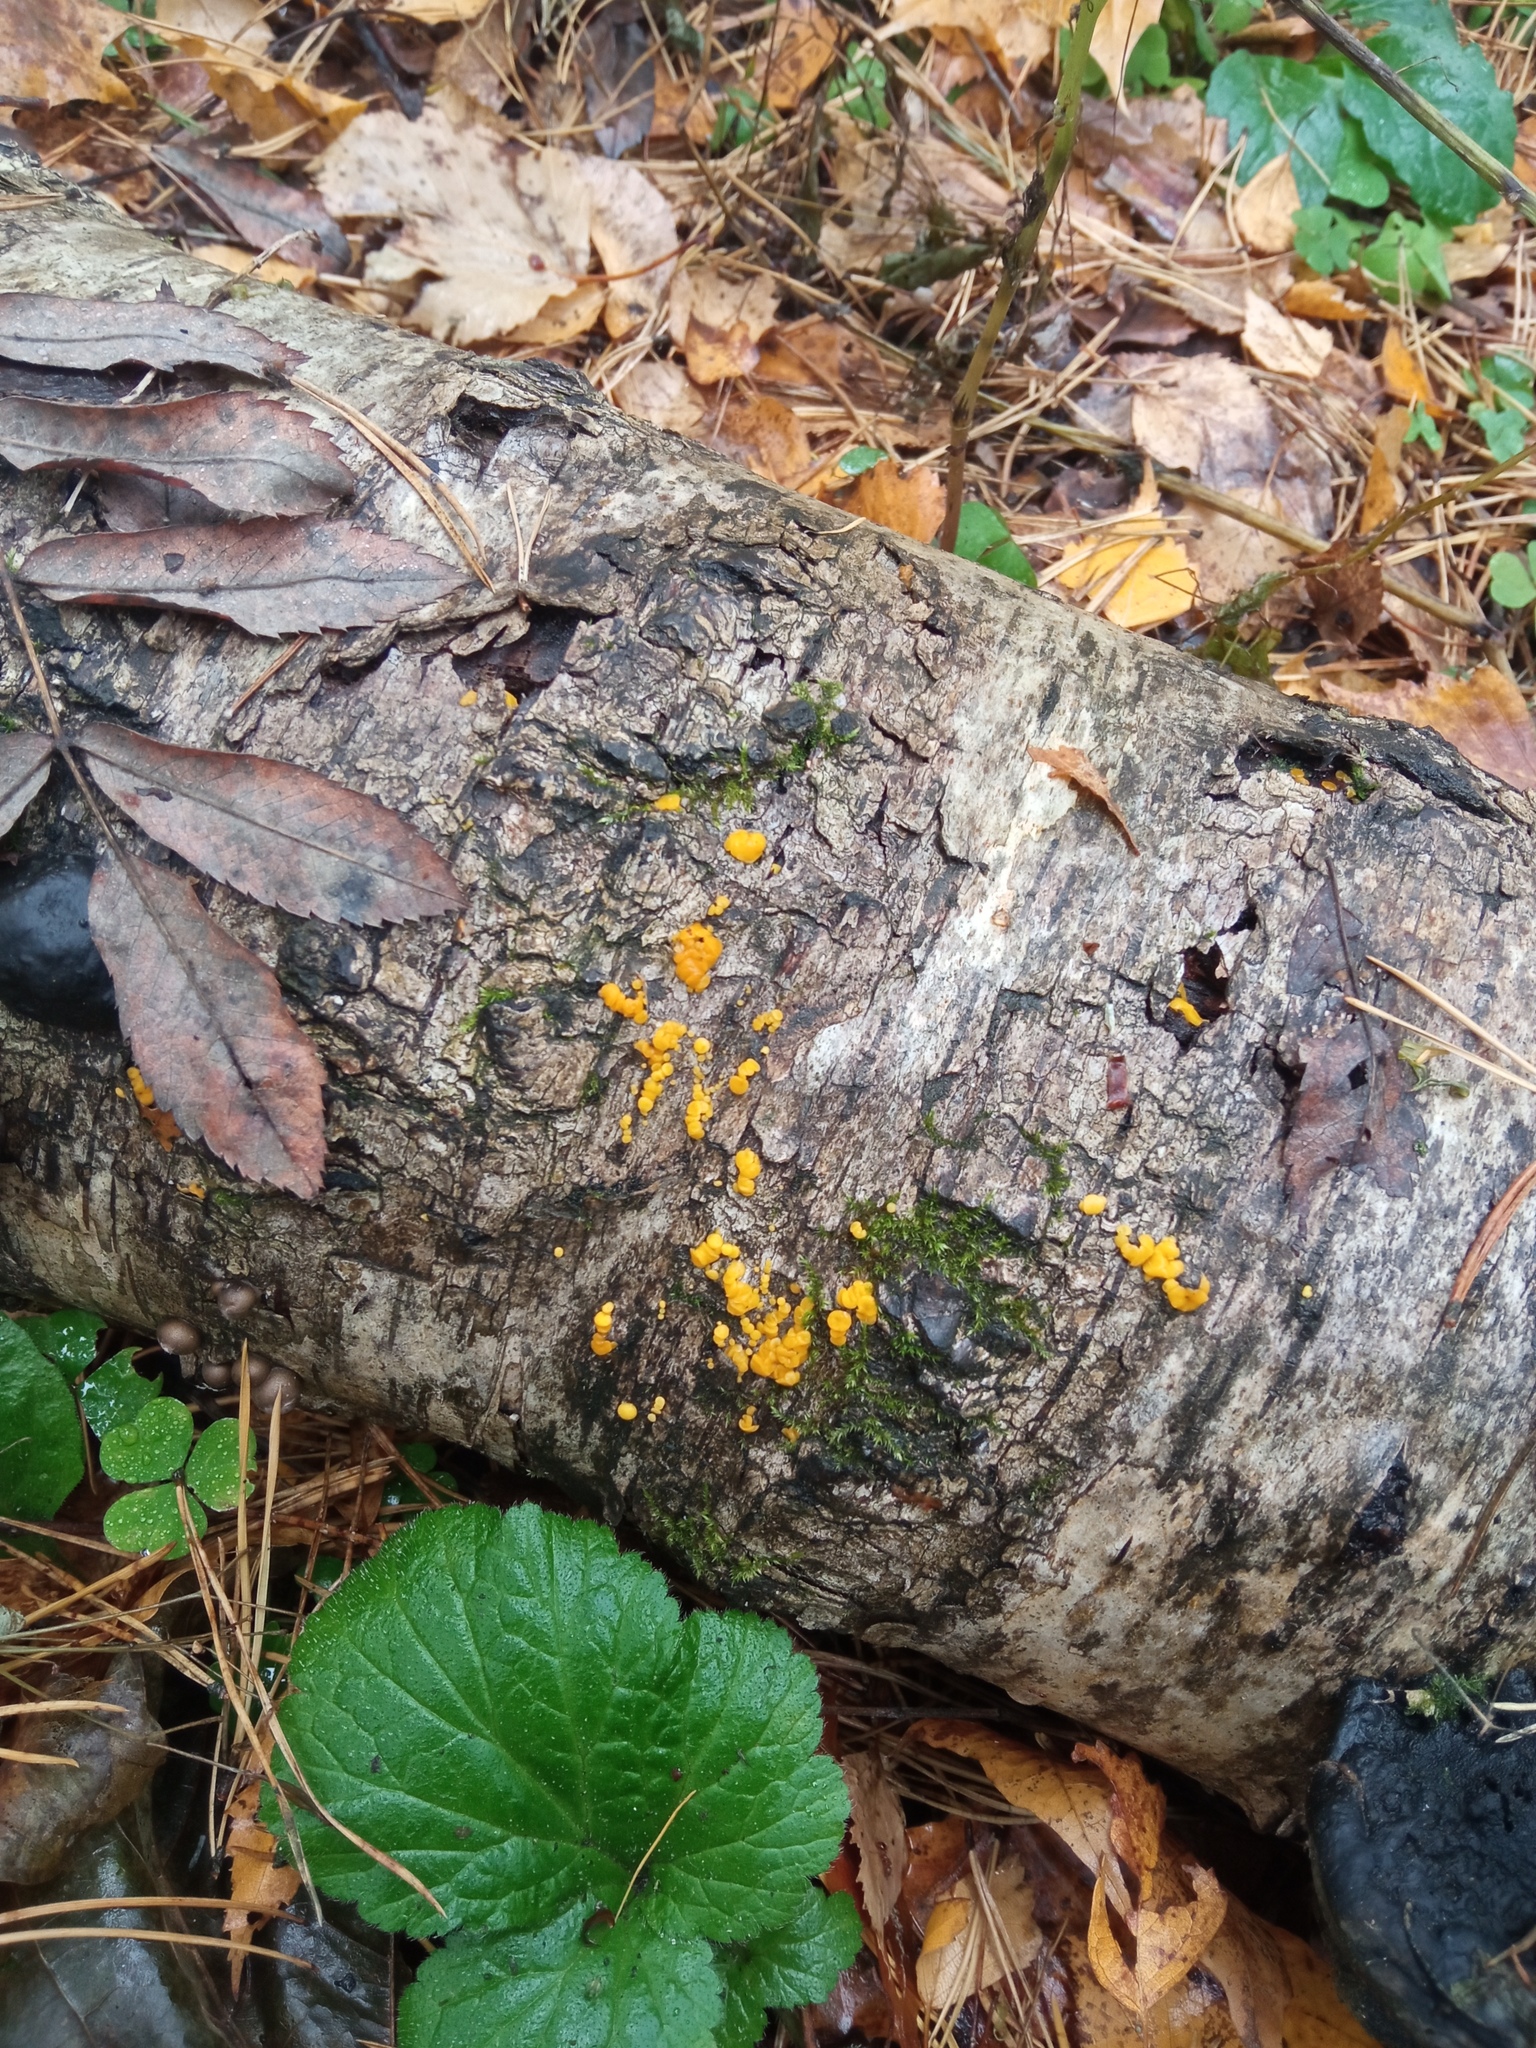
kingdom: Fungi
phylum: Ascomycota
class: Leotiomycetes
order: Helotiales
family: Pezizellaceae
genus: Calycina
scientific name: Calycina citrina
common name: Yellow fairy cups
